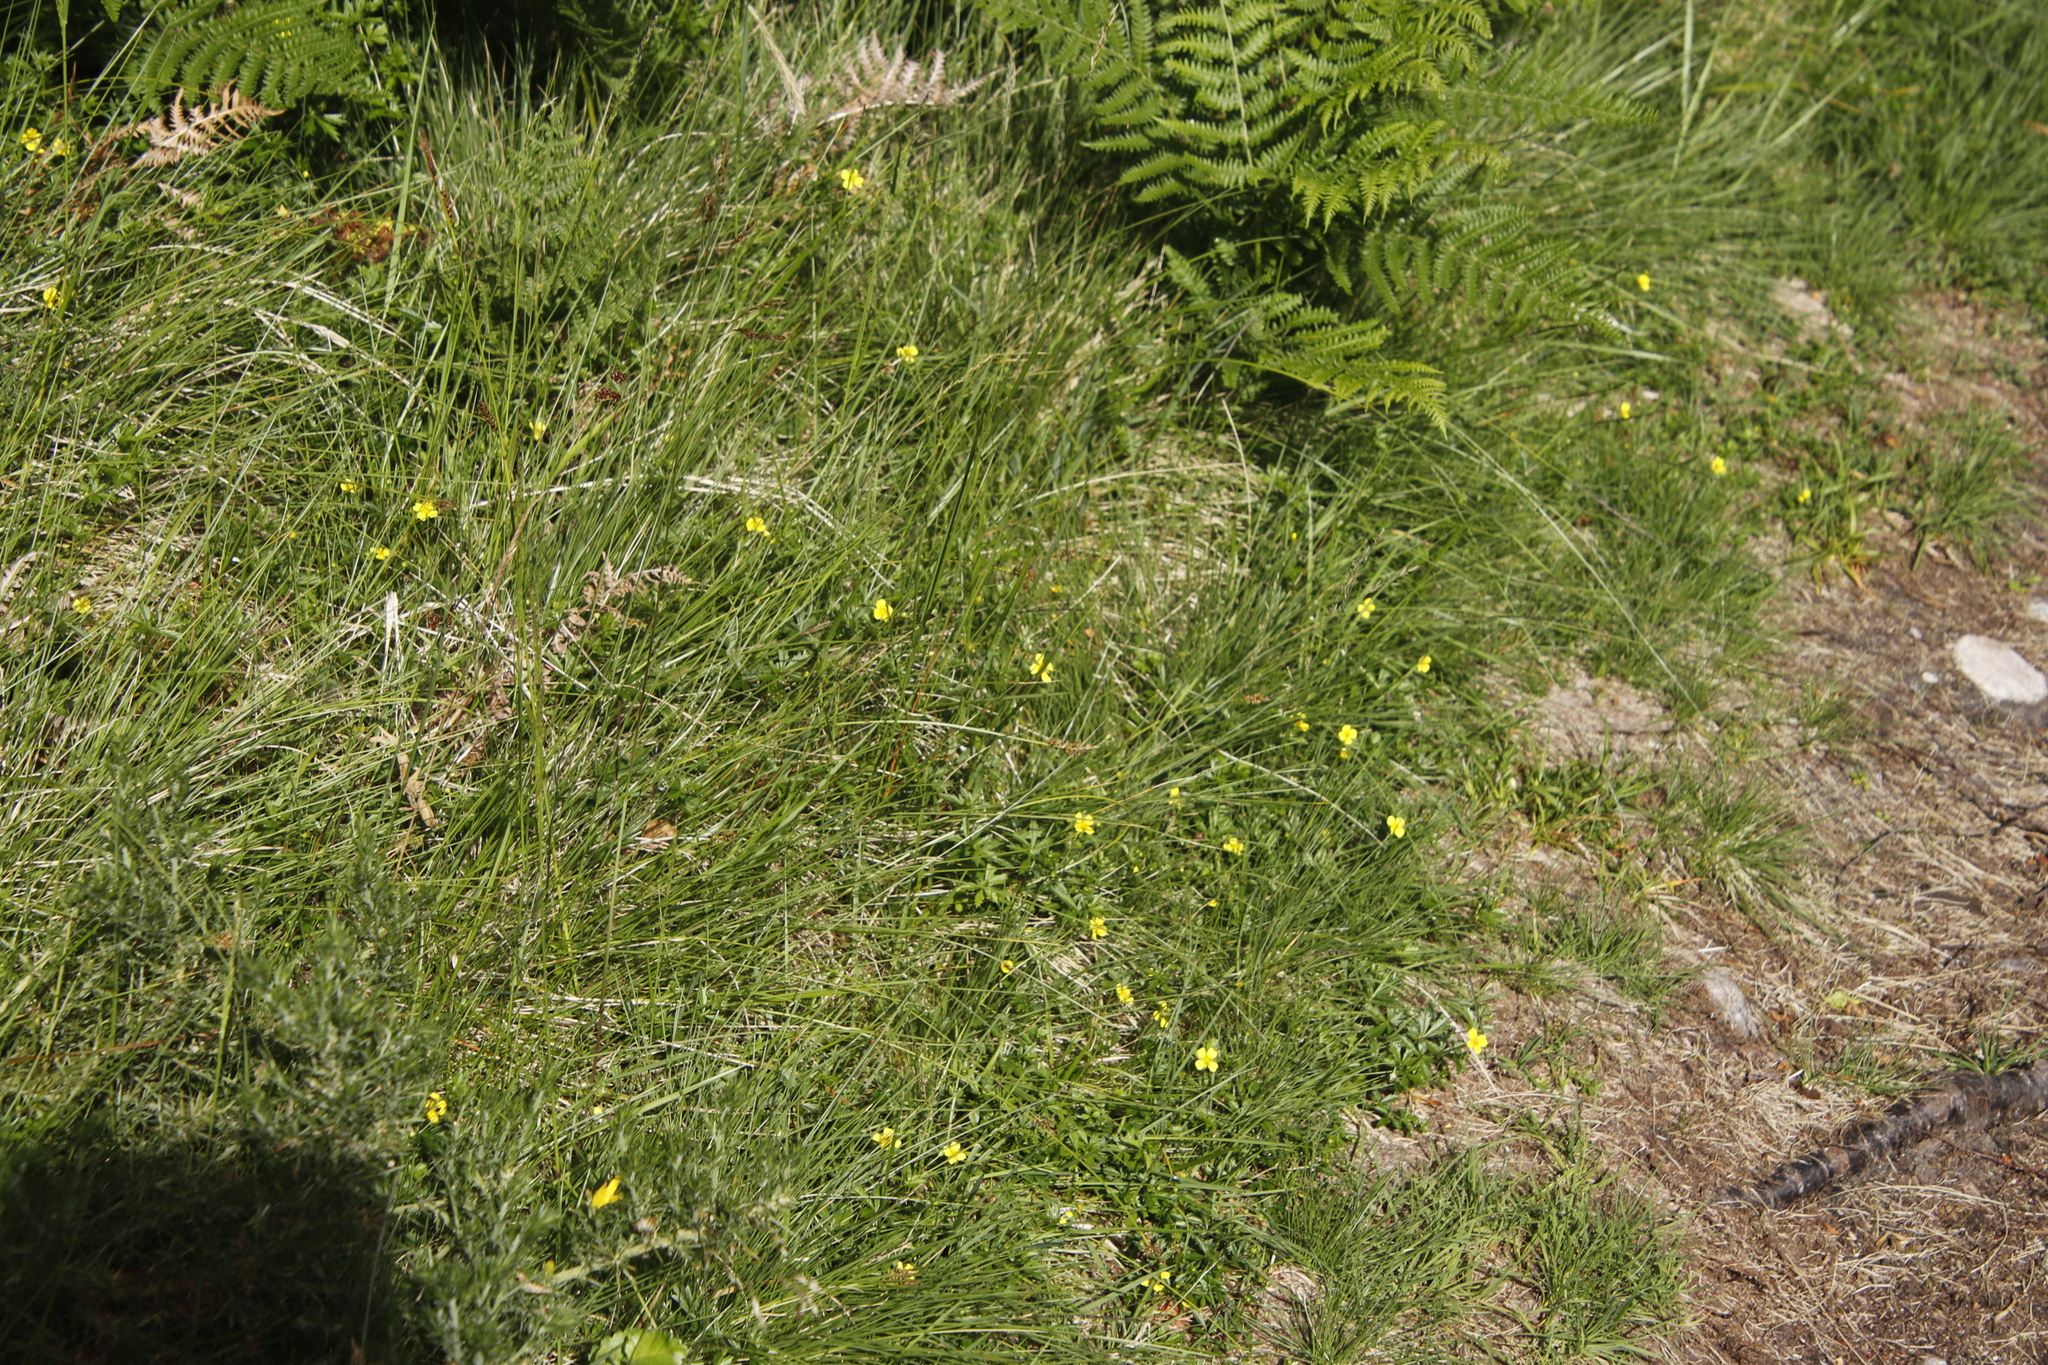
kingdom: Plantae
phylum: Tracheophyta
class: Magnoliopsida
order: Rosales
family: Rosaceae
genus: Potentilla
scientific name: Potentilla erecta
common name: Tormentil
